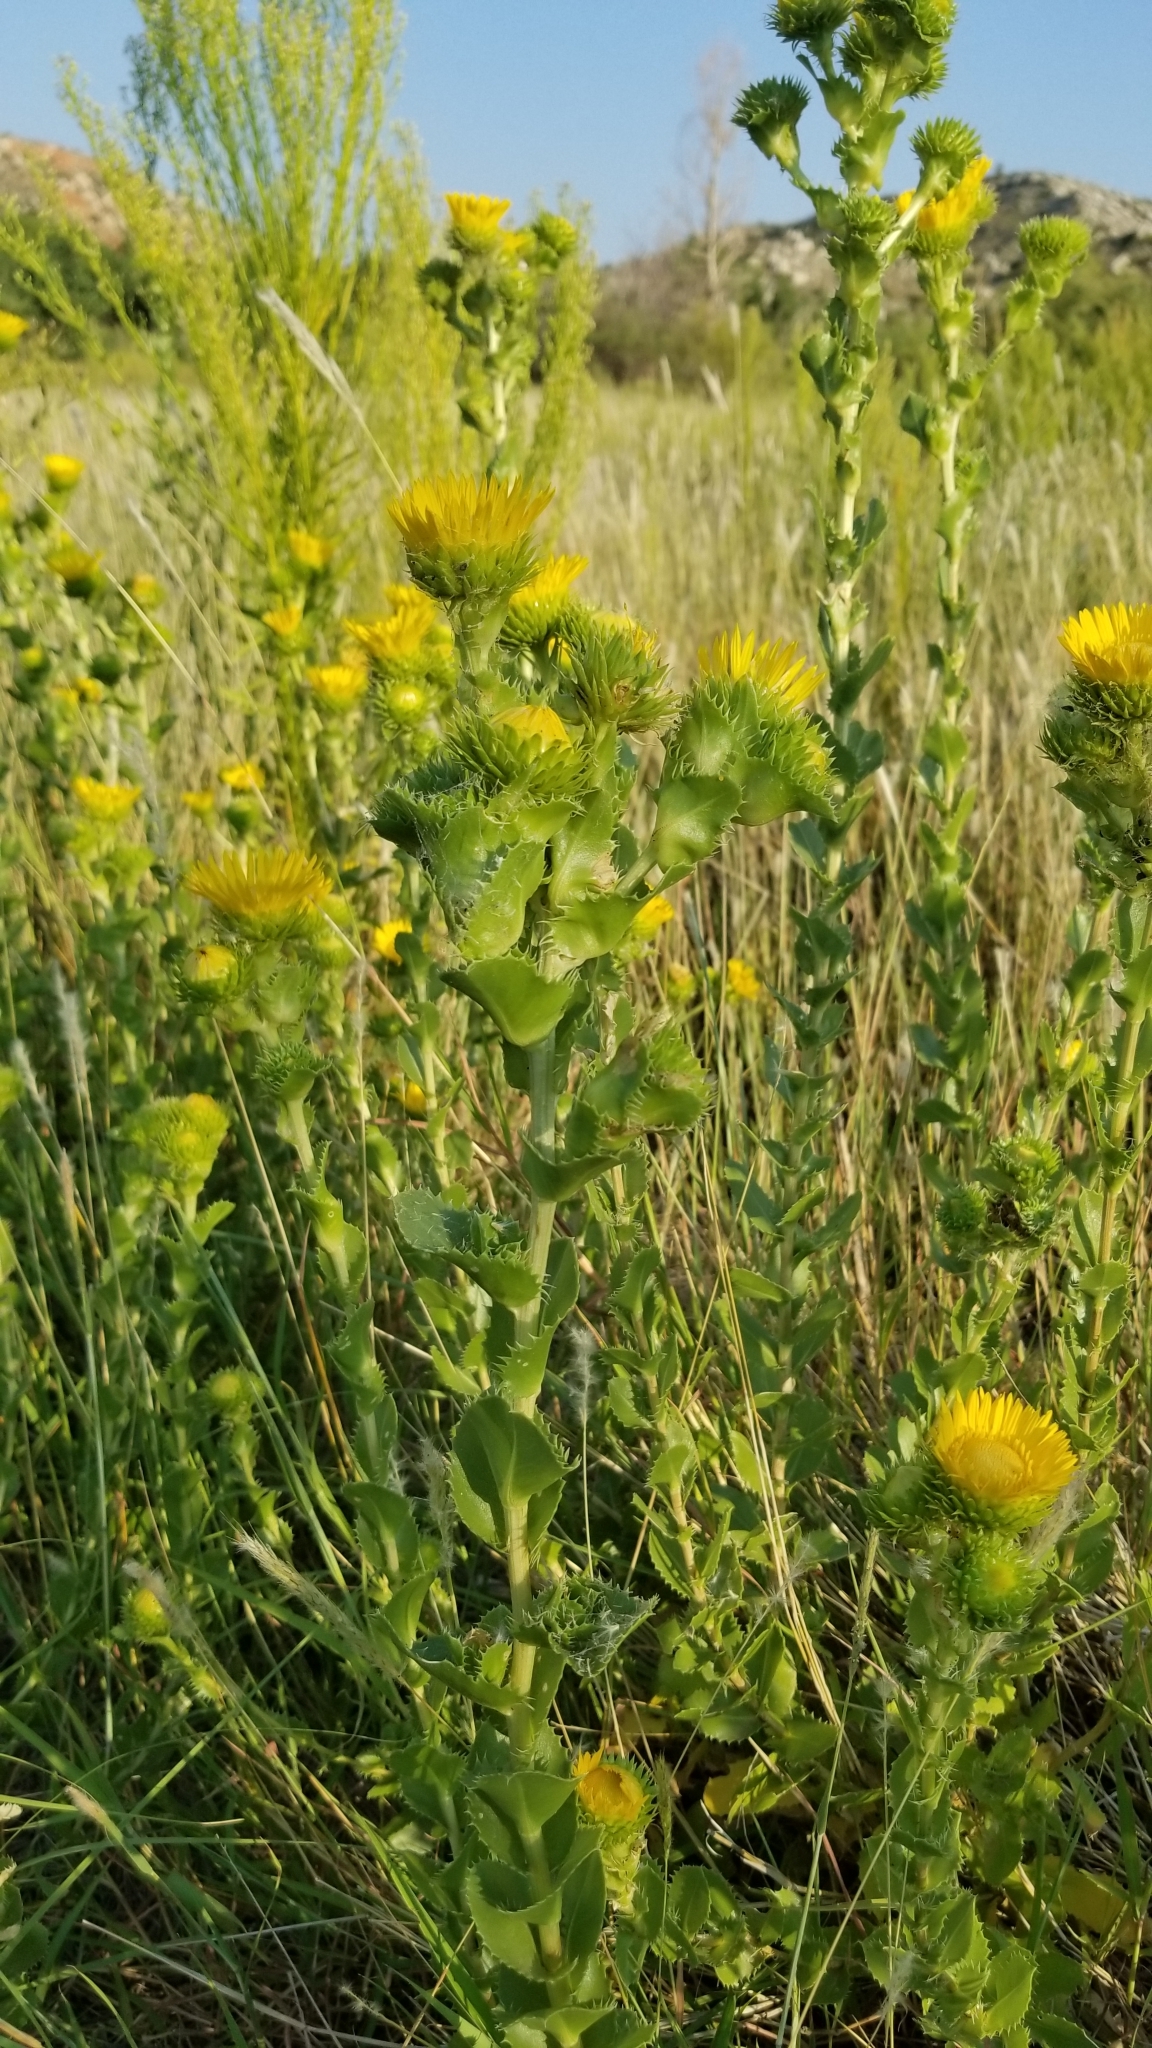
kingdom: Plantae
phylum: Tracheophyta
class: Magnoliopsida
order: Asterales
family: Asteraceae
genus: Grindelia
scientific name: Grindelia ciliata
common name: Goldenweed
